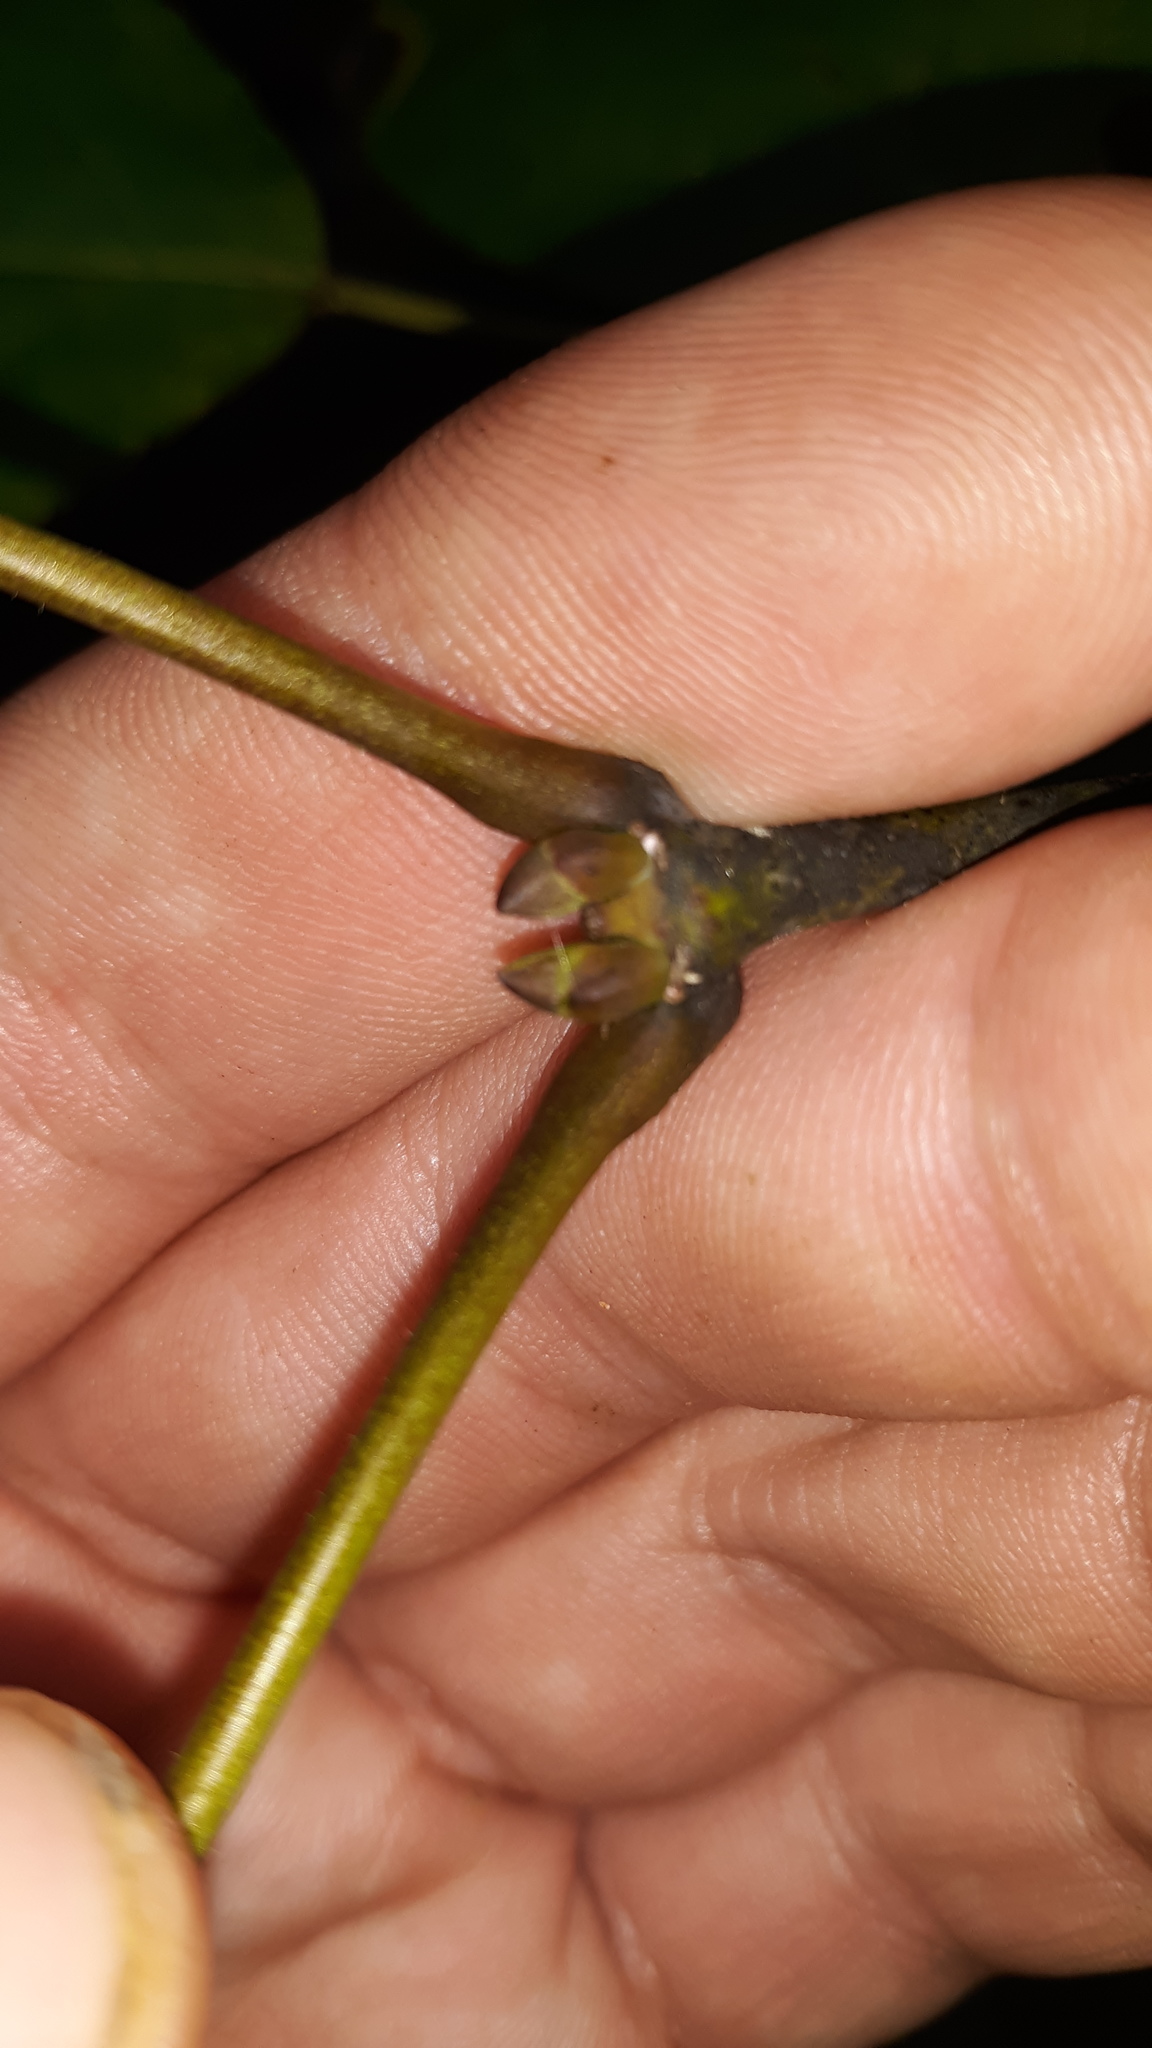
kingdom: Plantae
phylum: Tracheophyta
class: Magnoliopsida
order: Crossosomatales
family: Staphyleaceae
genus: Staphylea
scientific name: Staphylea trifolia
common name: American bladdernut
